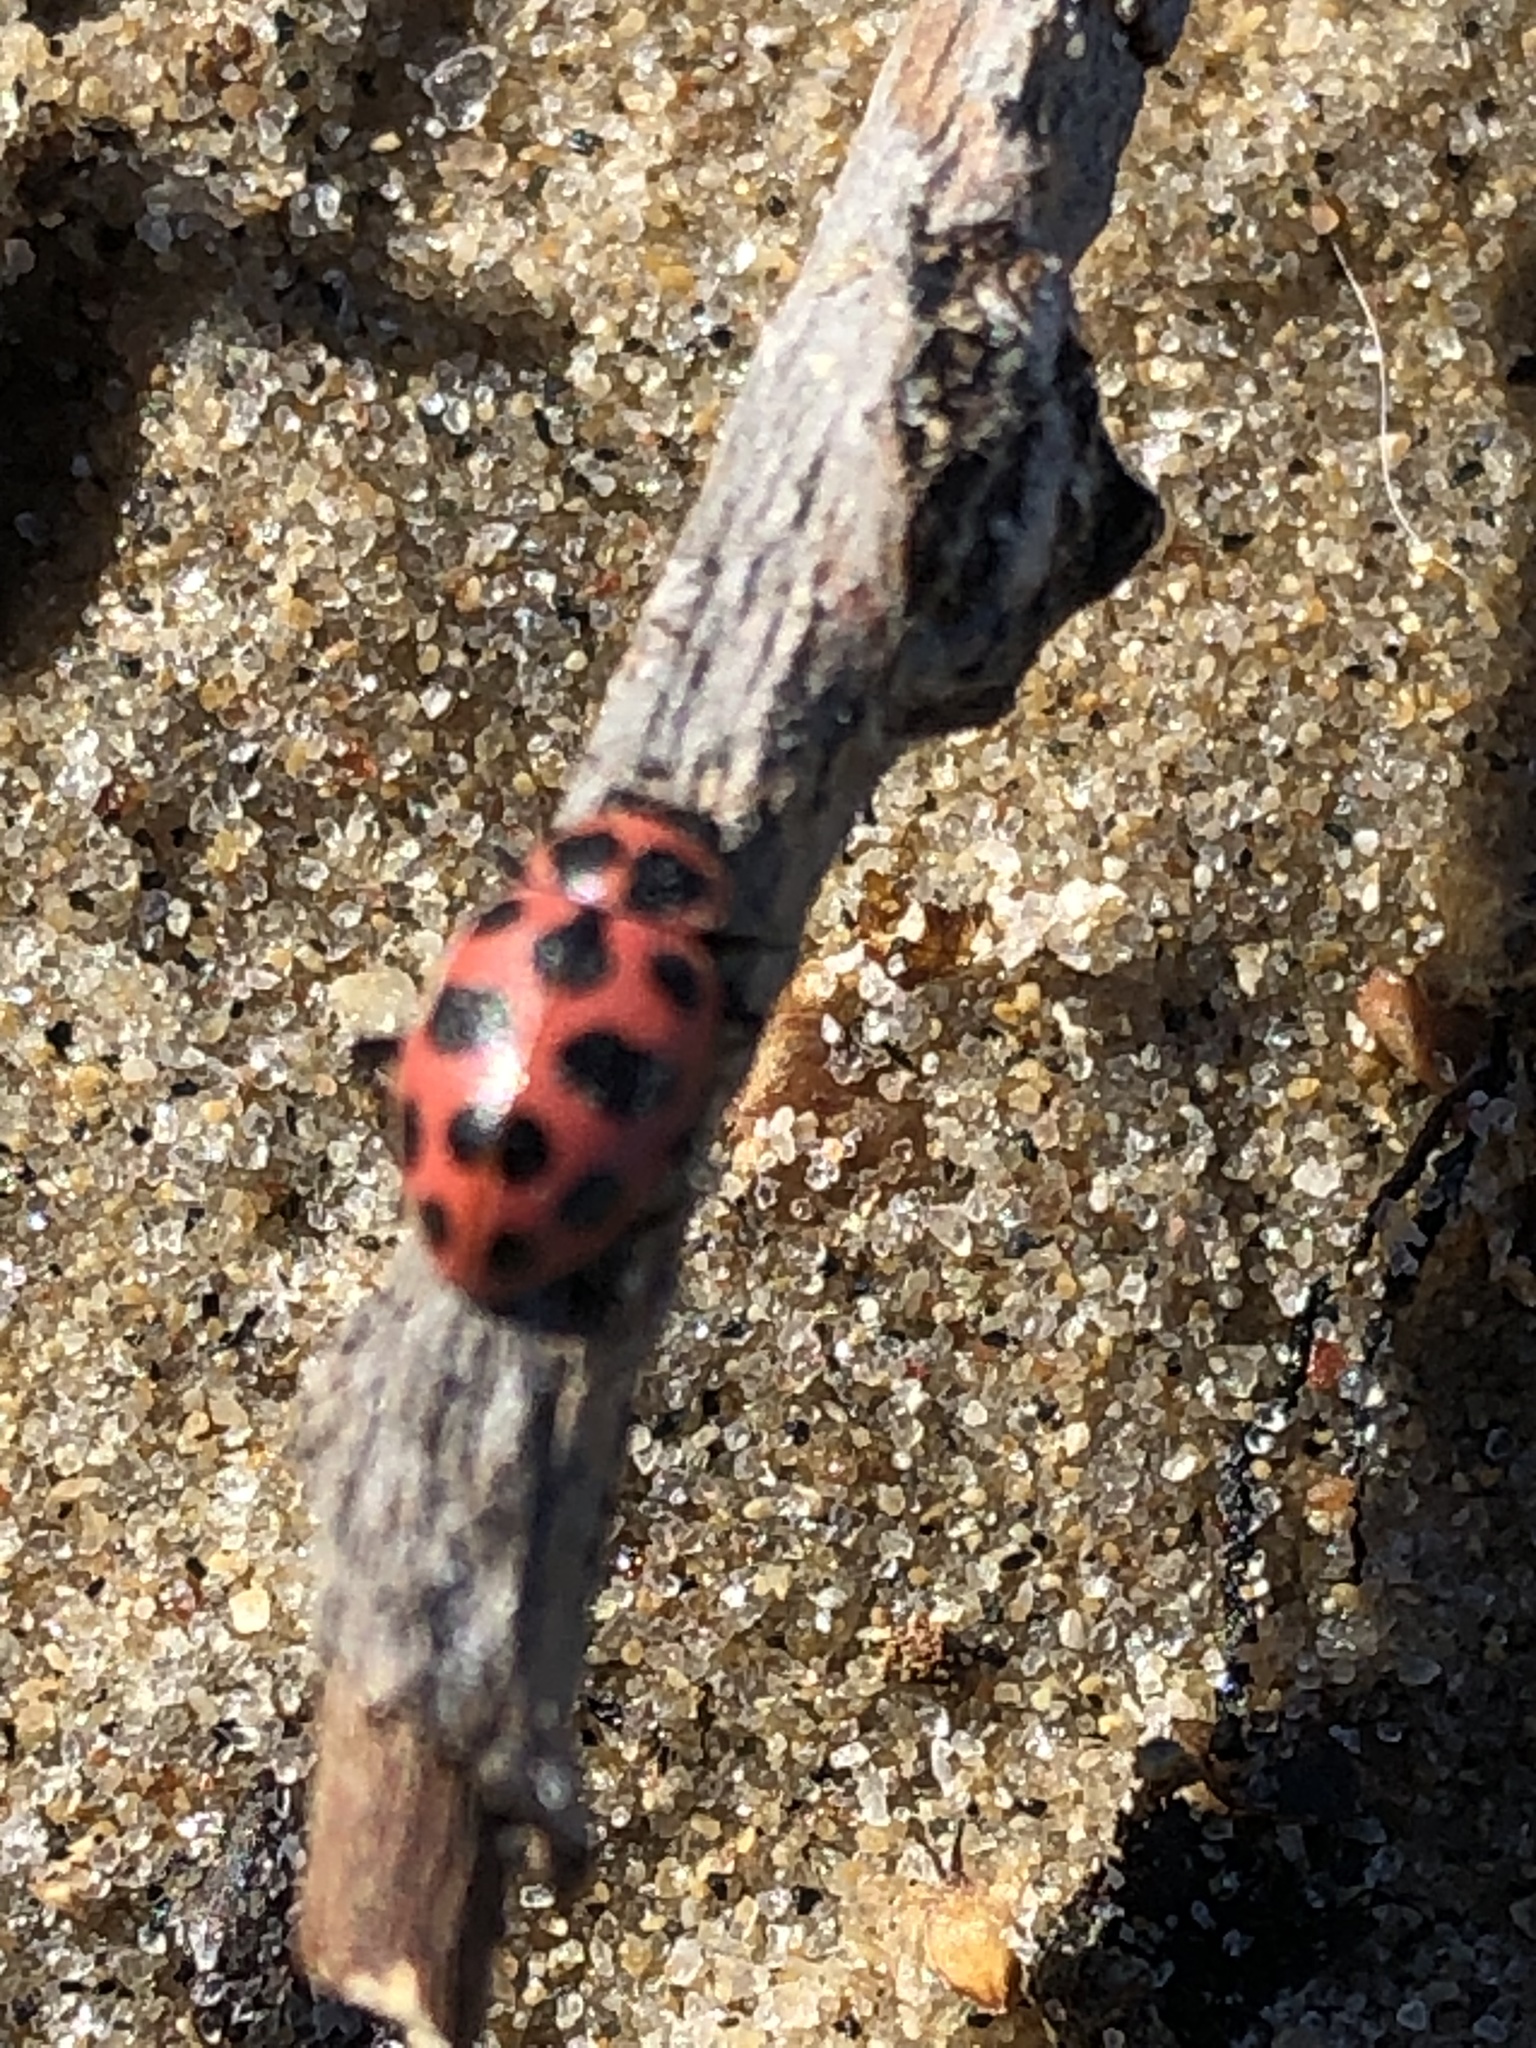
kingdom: Animalia
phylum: Arthropoda
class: Insecta
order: Coleoptera
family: Coccinellidae
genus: Coleomegilla
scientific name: Coleomegilla maculata
